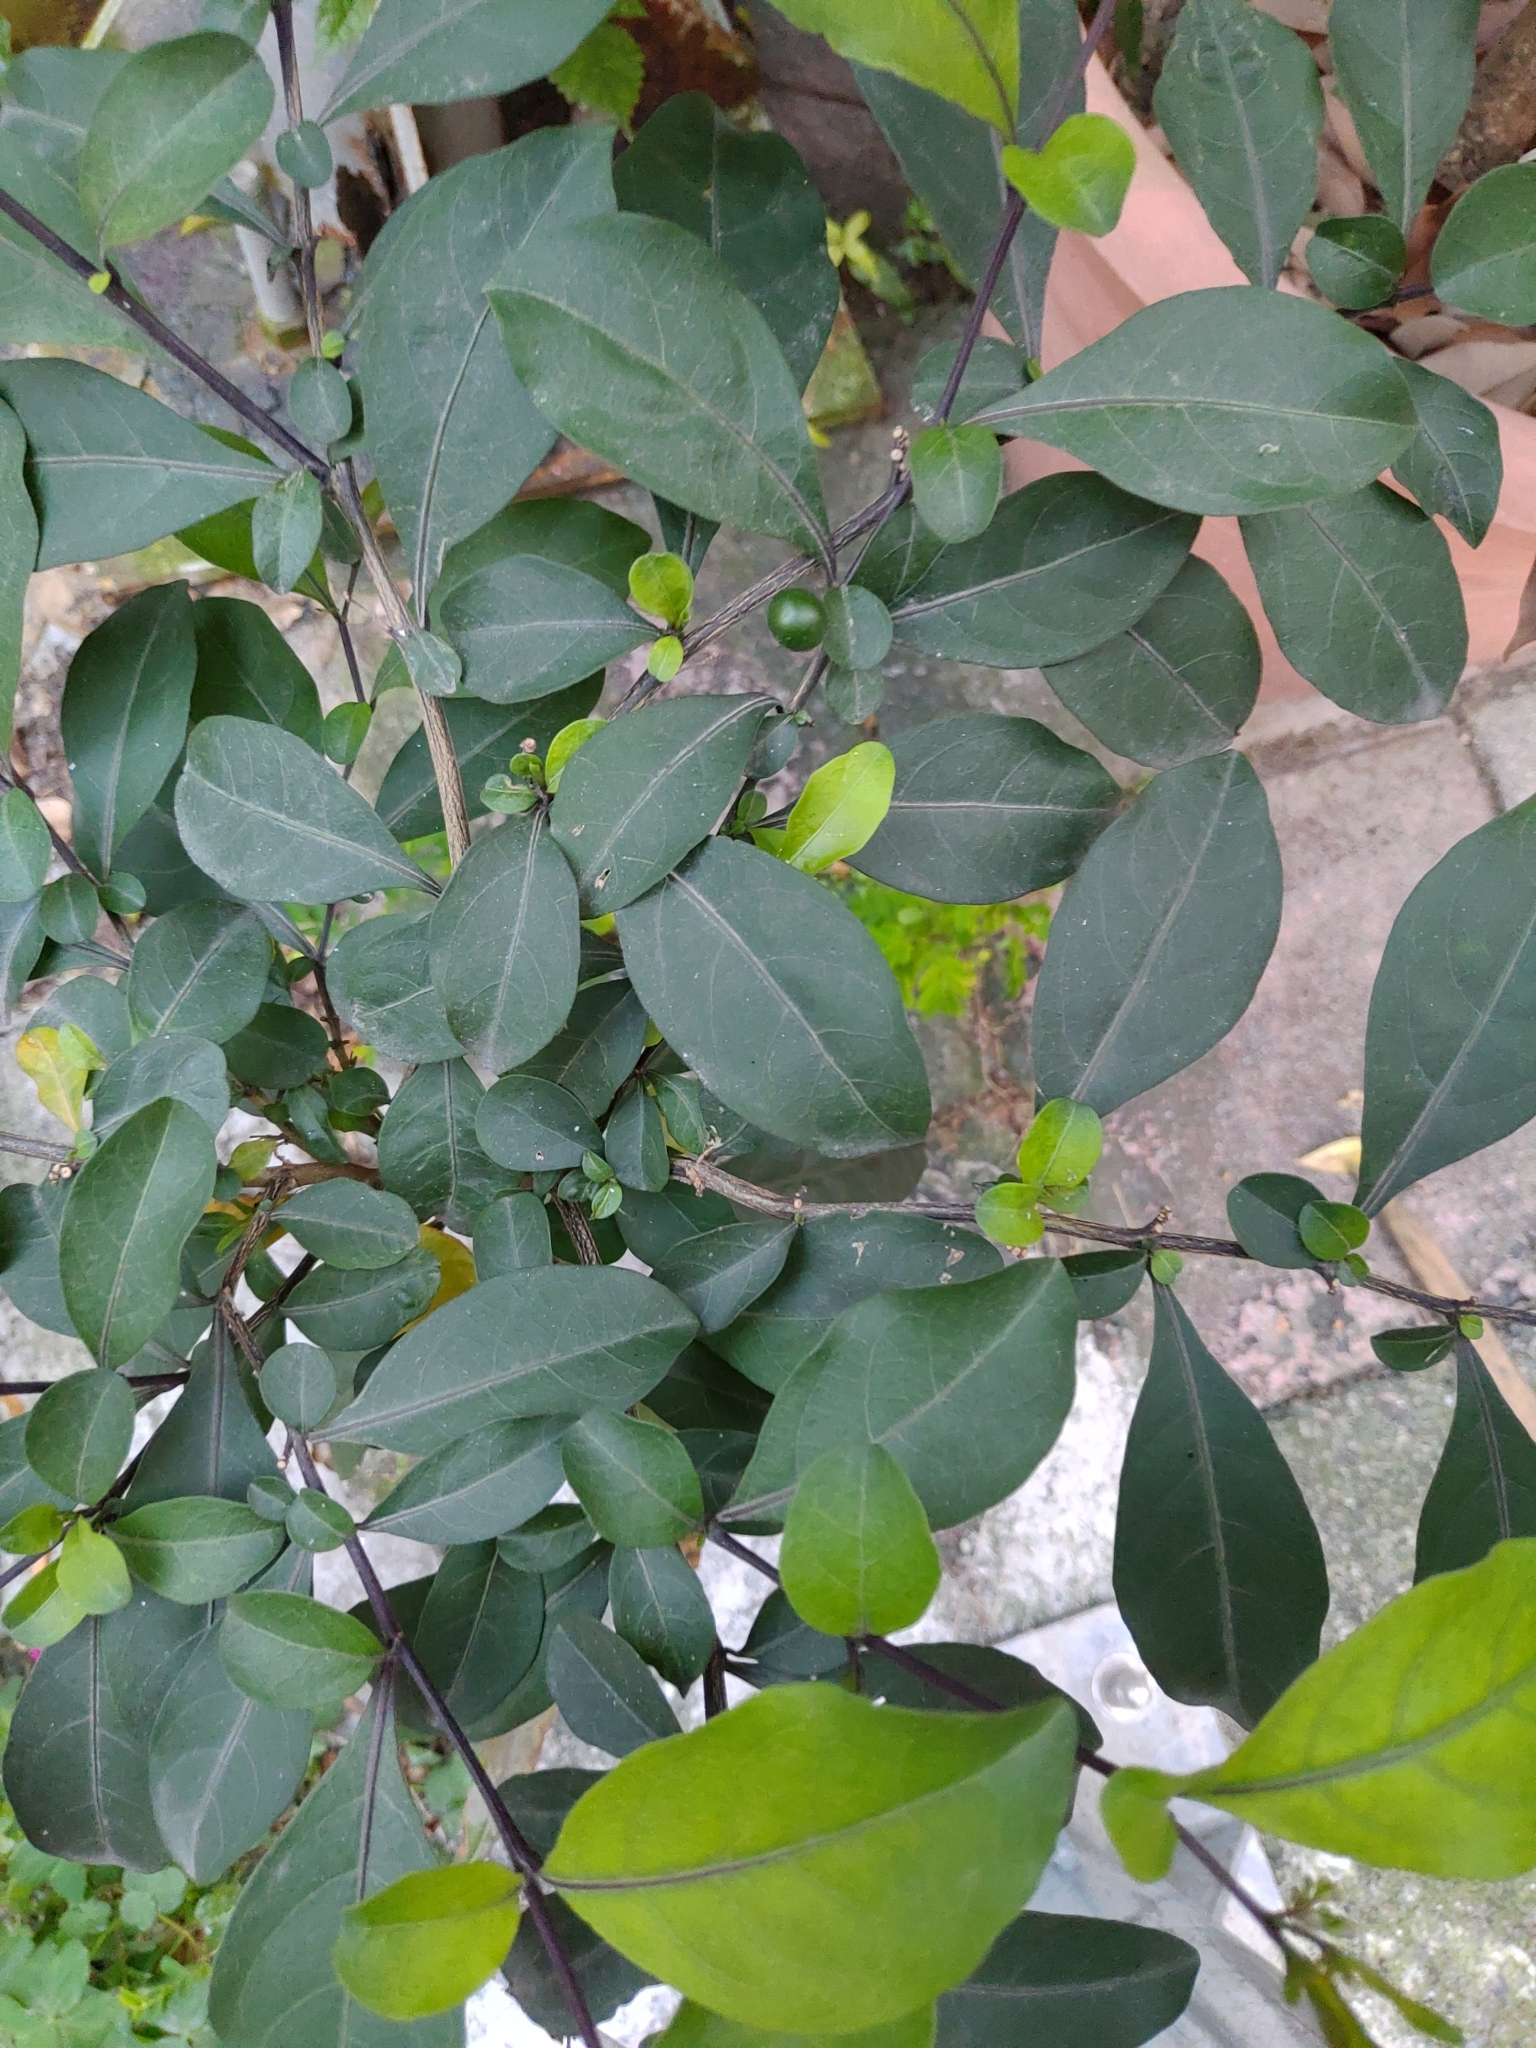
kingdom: Plantae
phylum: Tracheophyta
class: Magnoliopsida
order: Solanales
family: Solanaceae
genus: Solanum
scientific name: Solanum diphyllum
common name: Twoleaf nightshade
